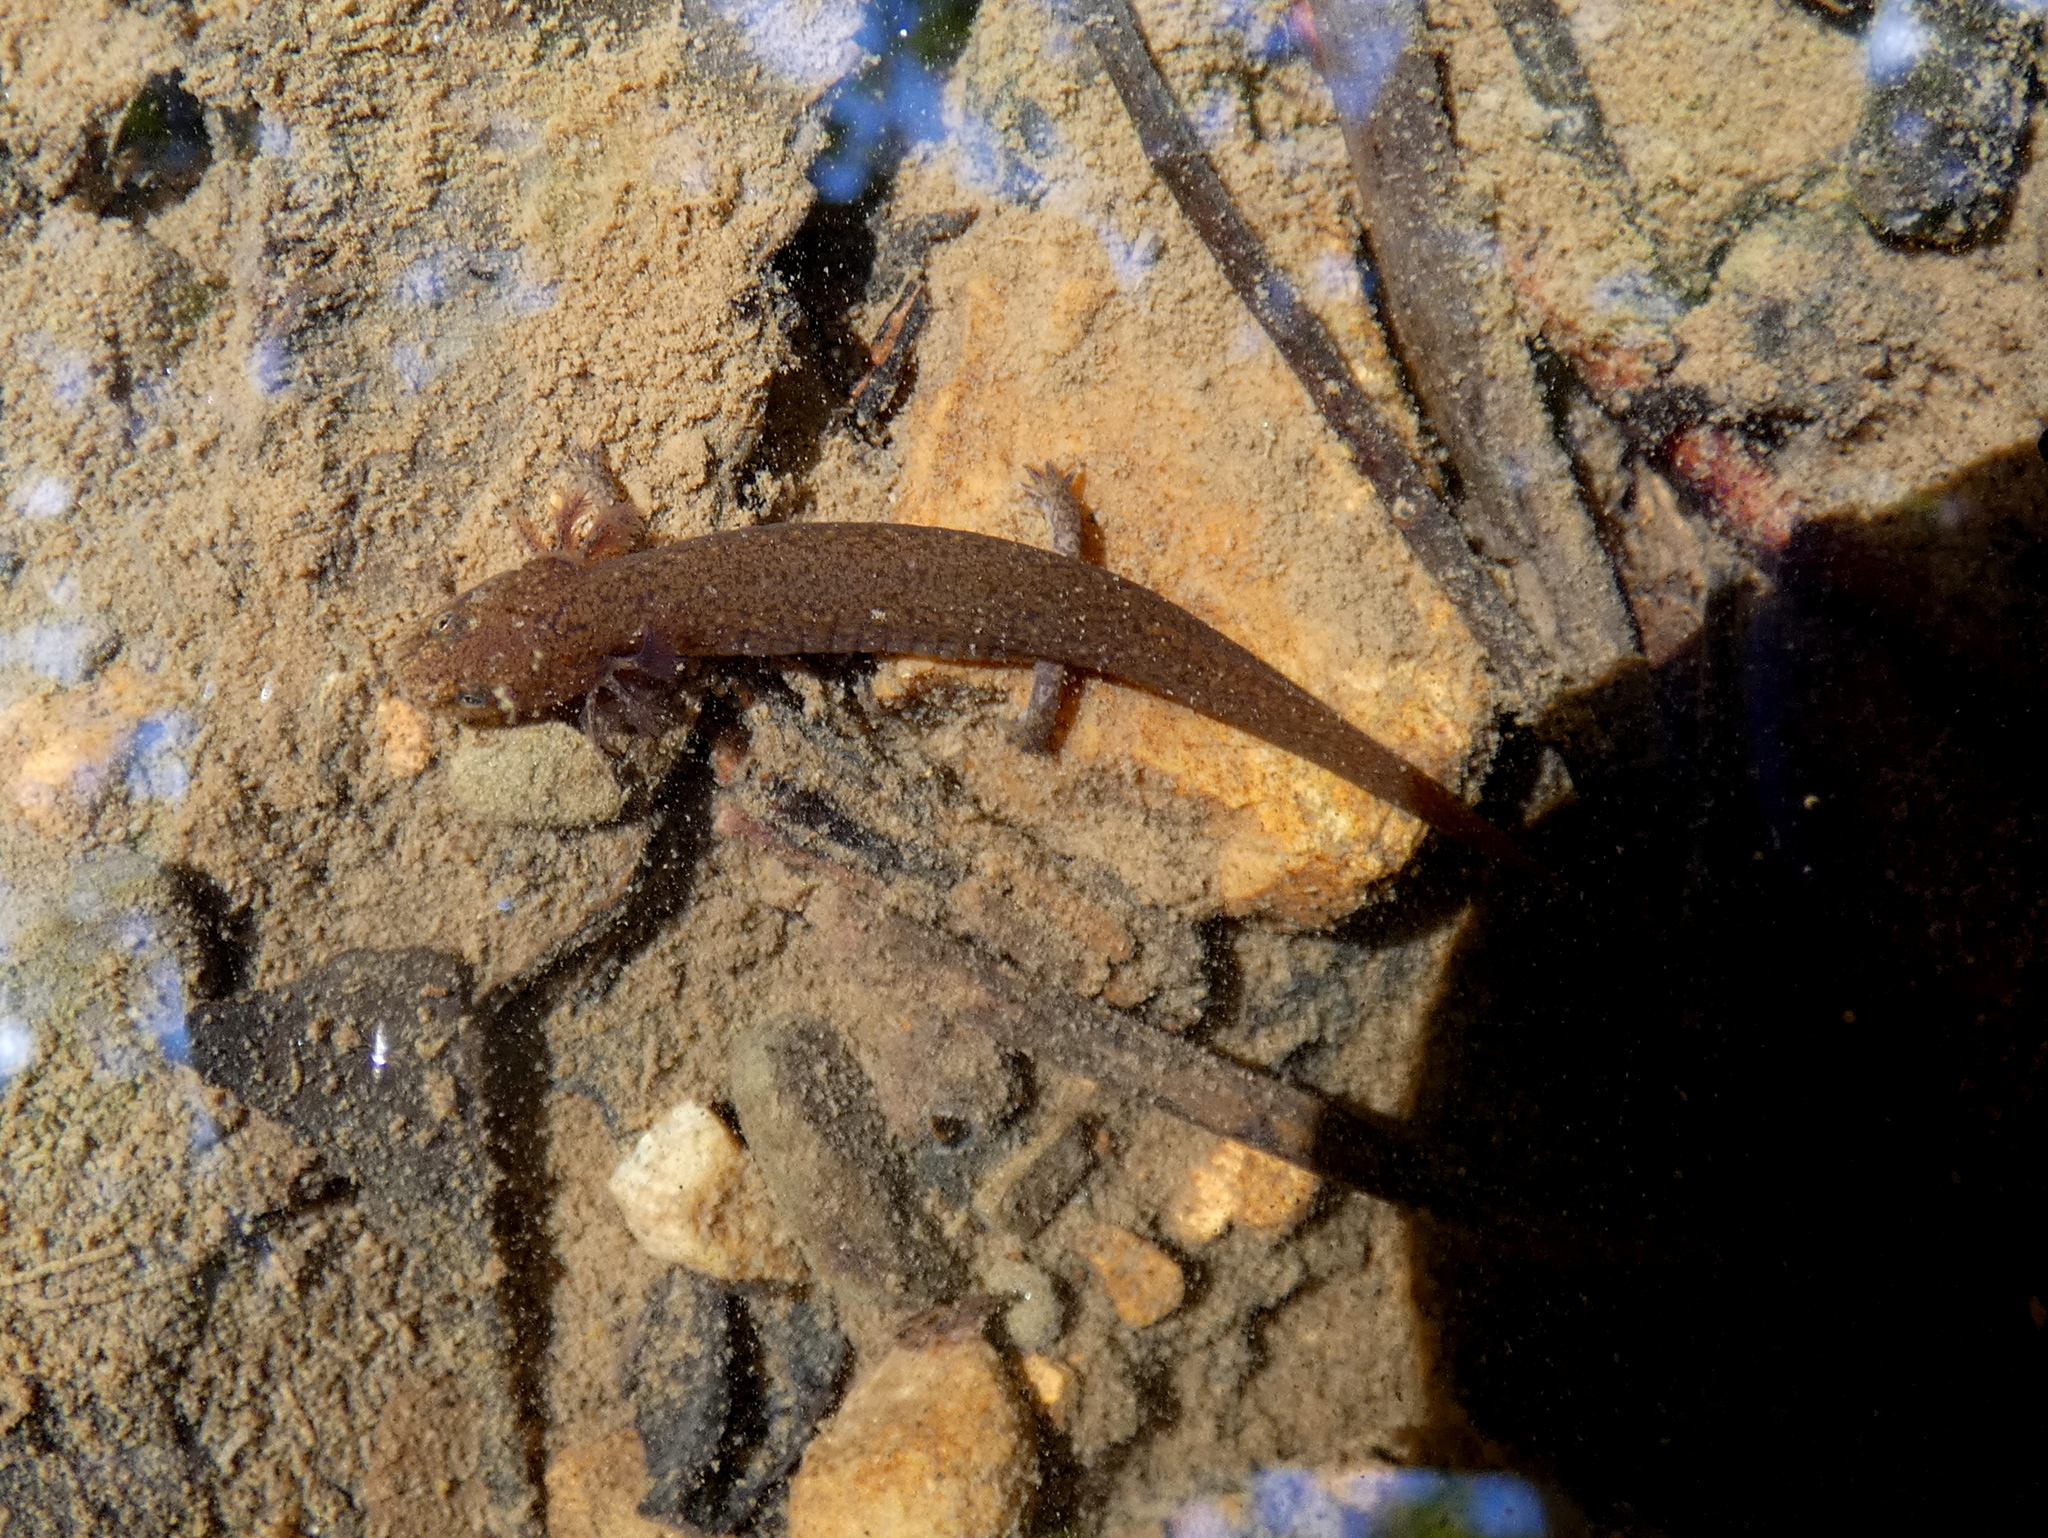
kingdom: Animalia
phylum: Chordata
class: Amphibia
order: Caudata
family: Plethodontidae
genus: Pseudotriton
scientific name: Pseudotriton ruber
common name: Red salamander
